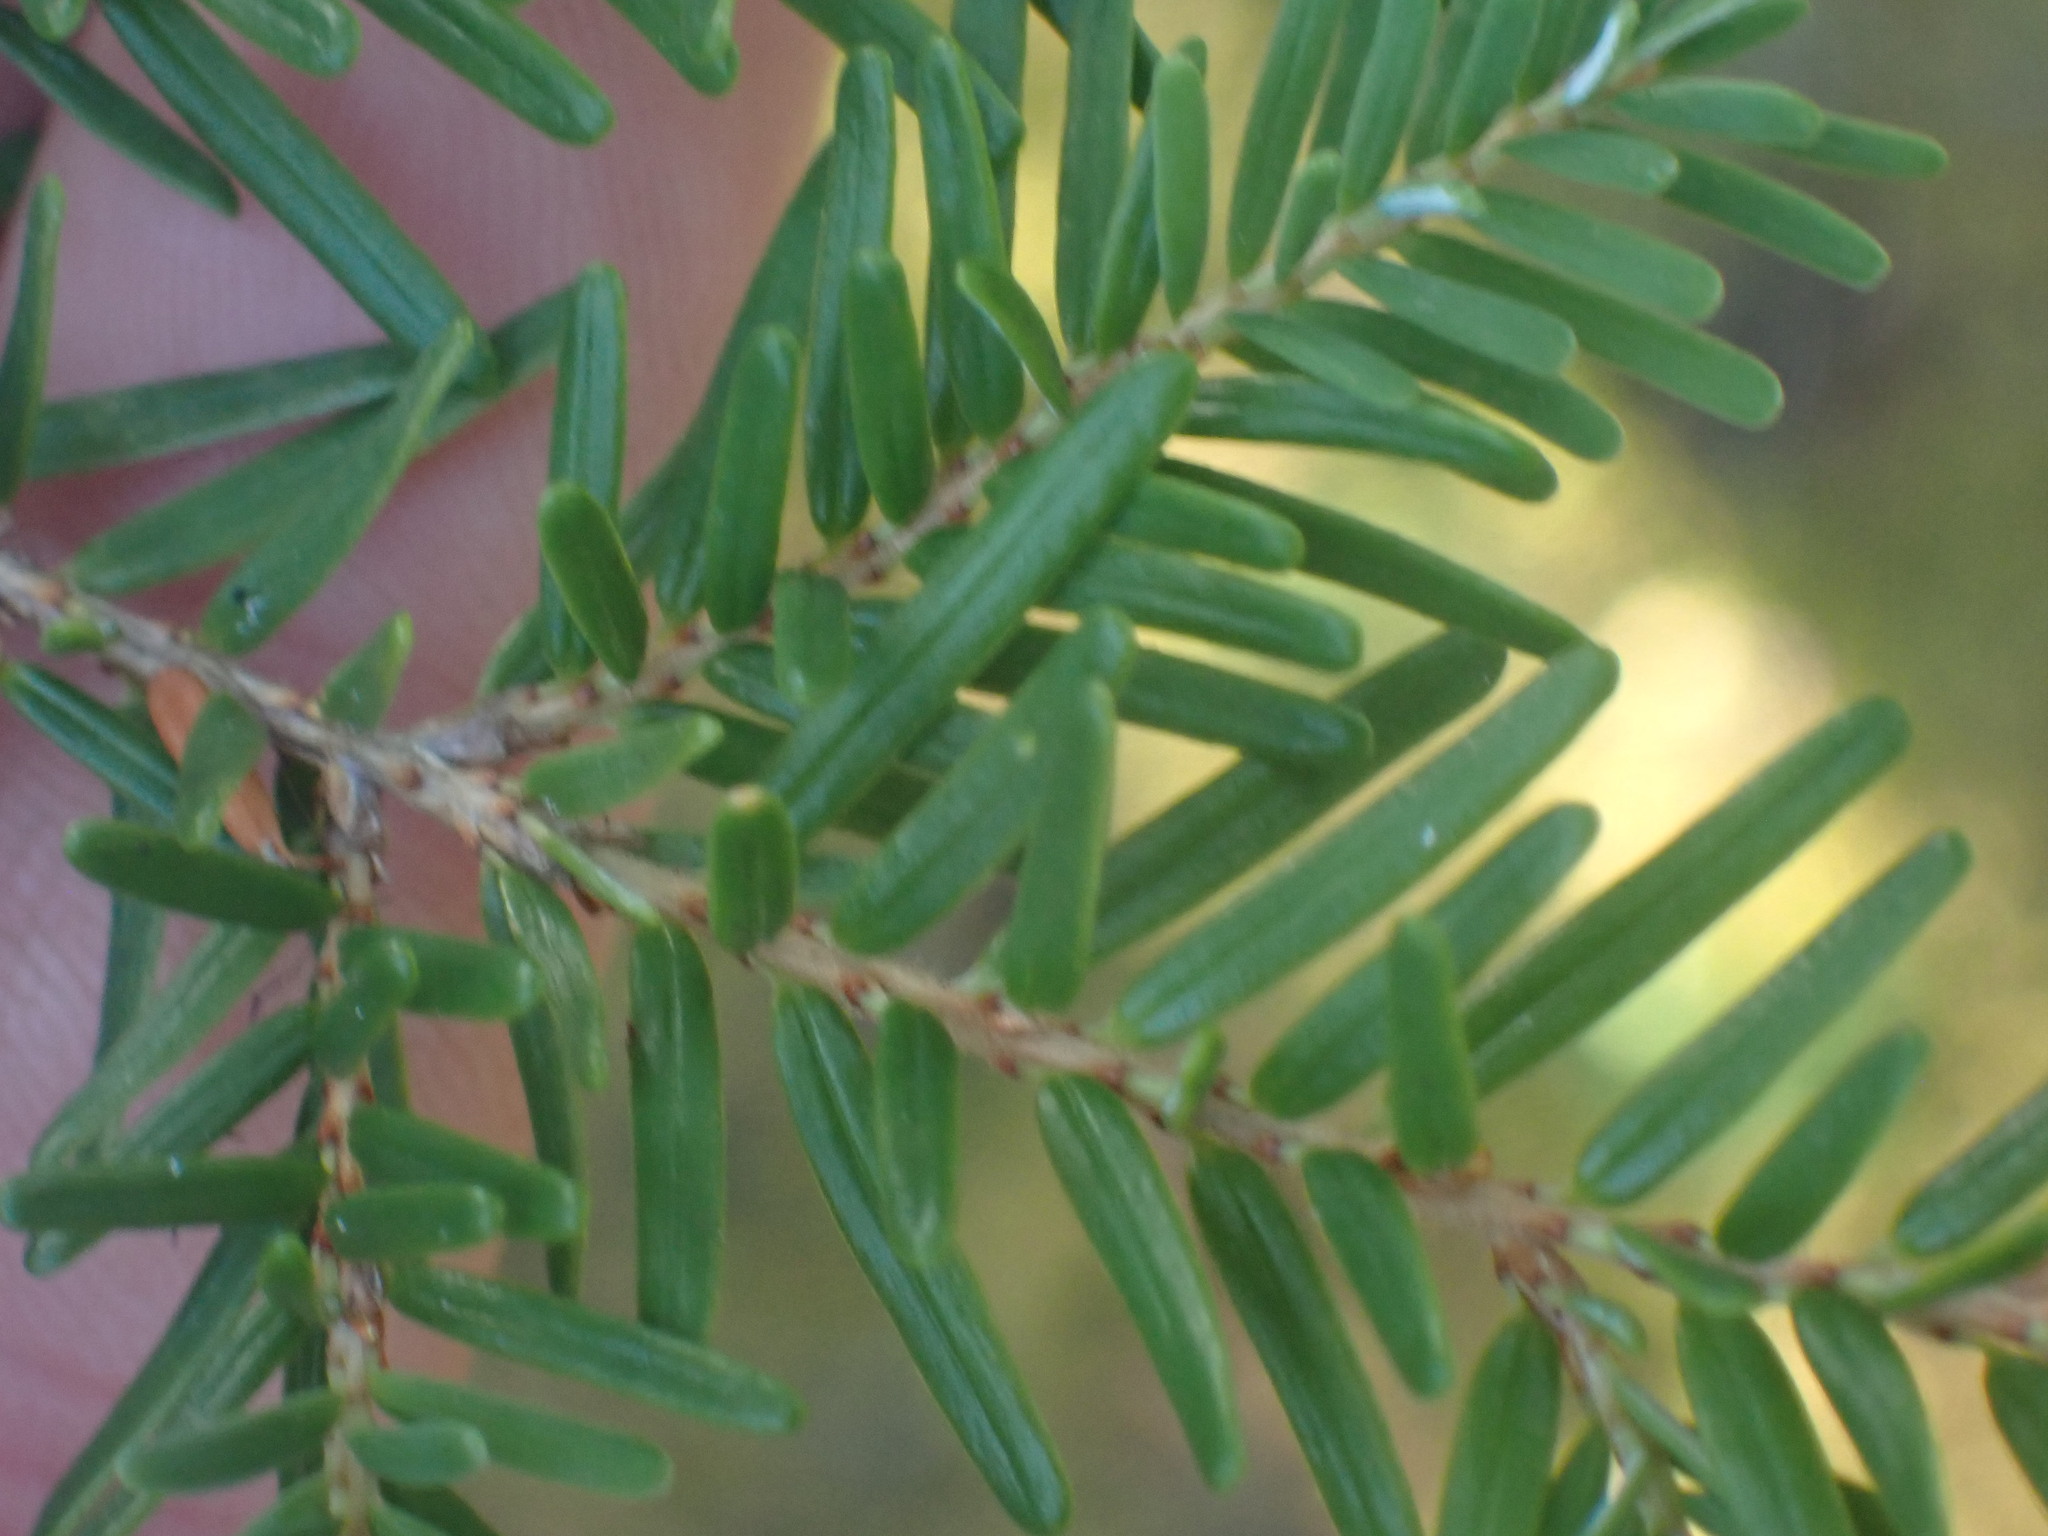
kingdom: Plantae
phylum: Tracheophyta
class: Pinopsida
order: Pinales
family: Pinaceae
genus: Tsuga
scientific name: Tsuga heterophylla
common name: Western hemlock
